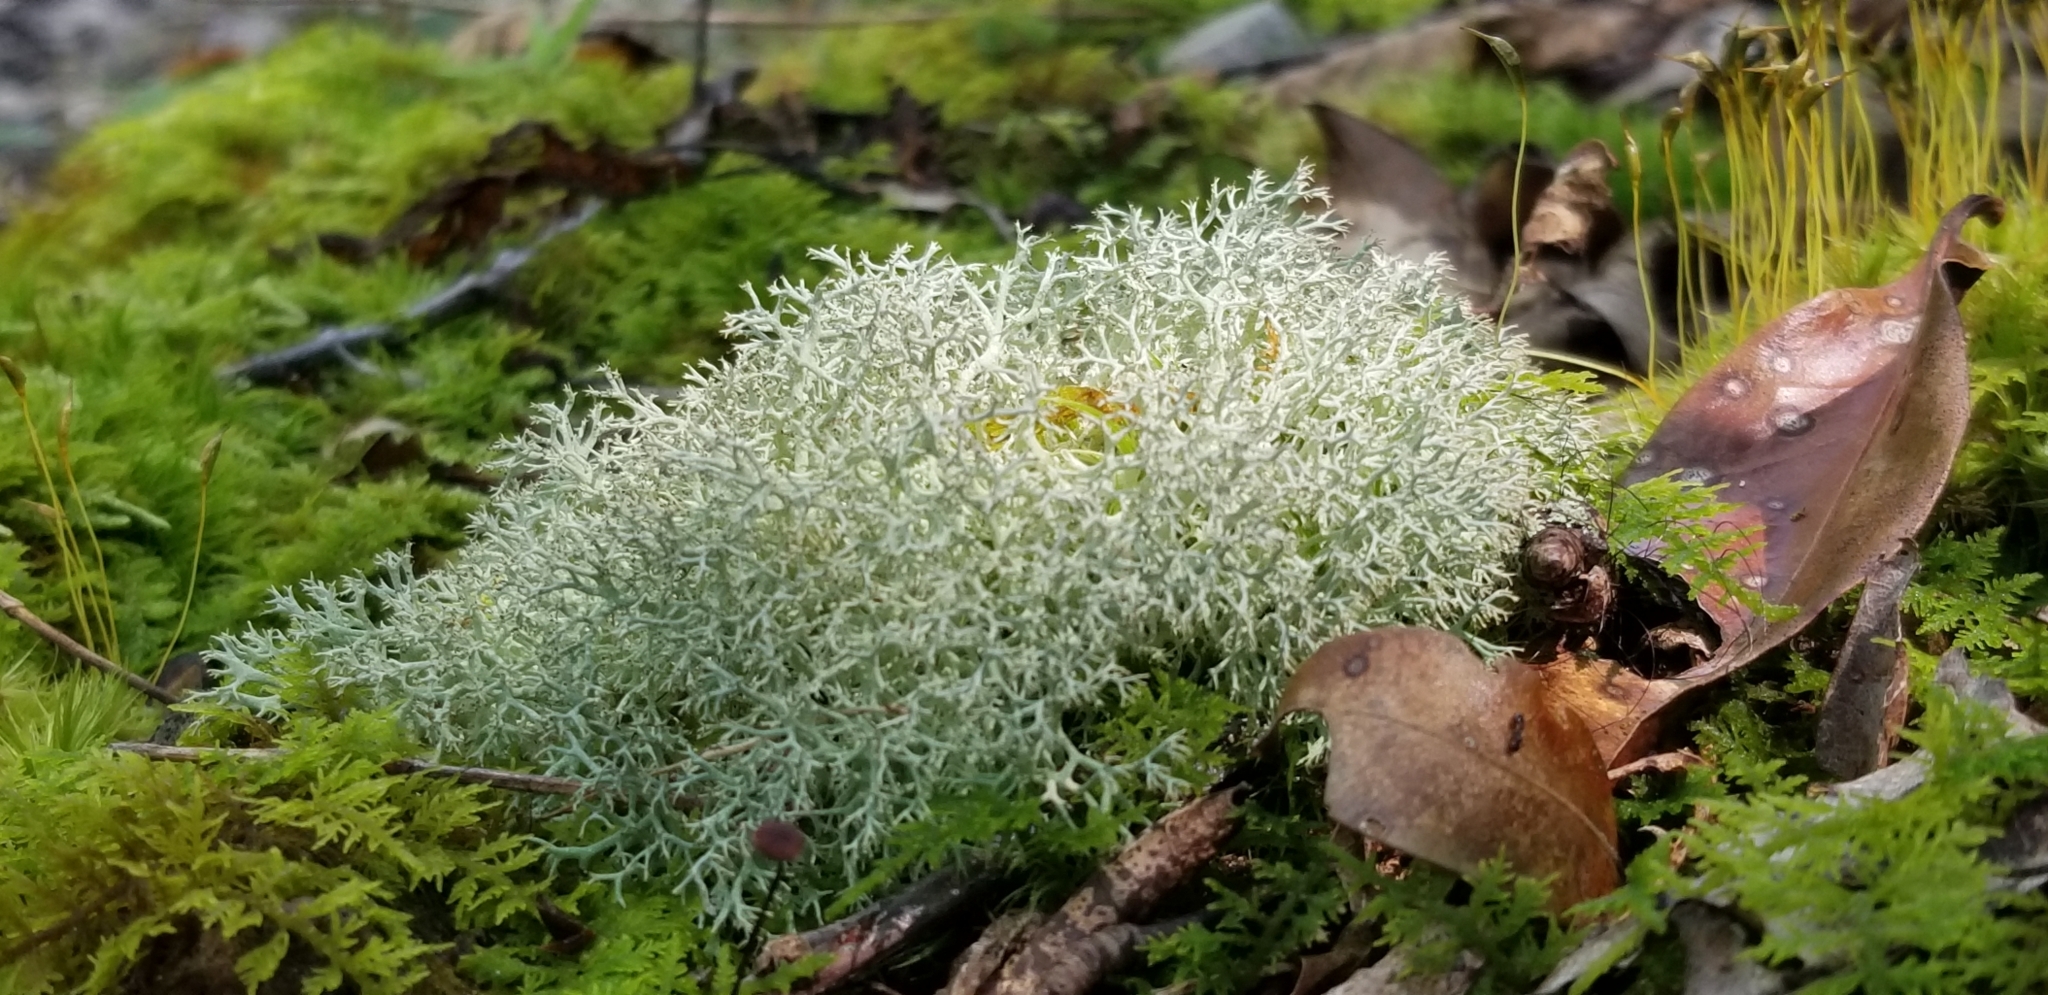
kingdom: Fungi
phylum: Ascomycota
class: Lecanoromycetes
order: Lecanorales
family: Cladoniaceae
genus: Cladonia
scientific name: Cladonia subtenuis
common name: Dixie reindeer lichen
